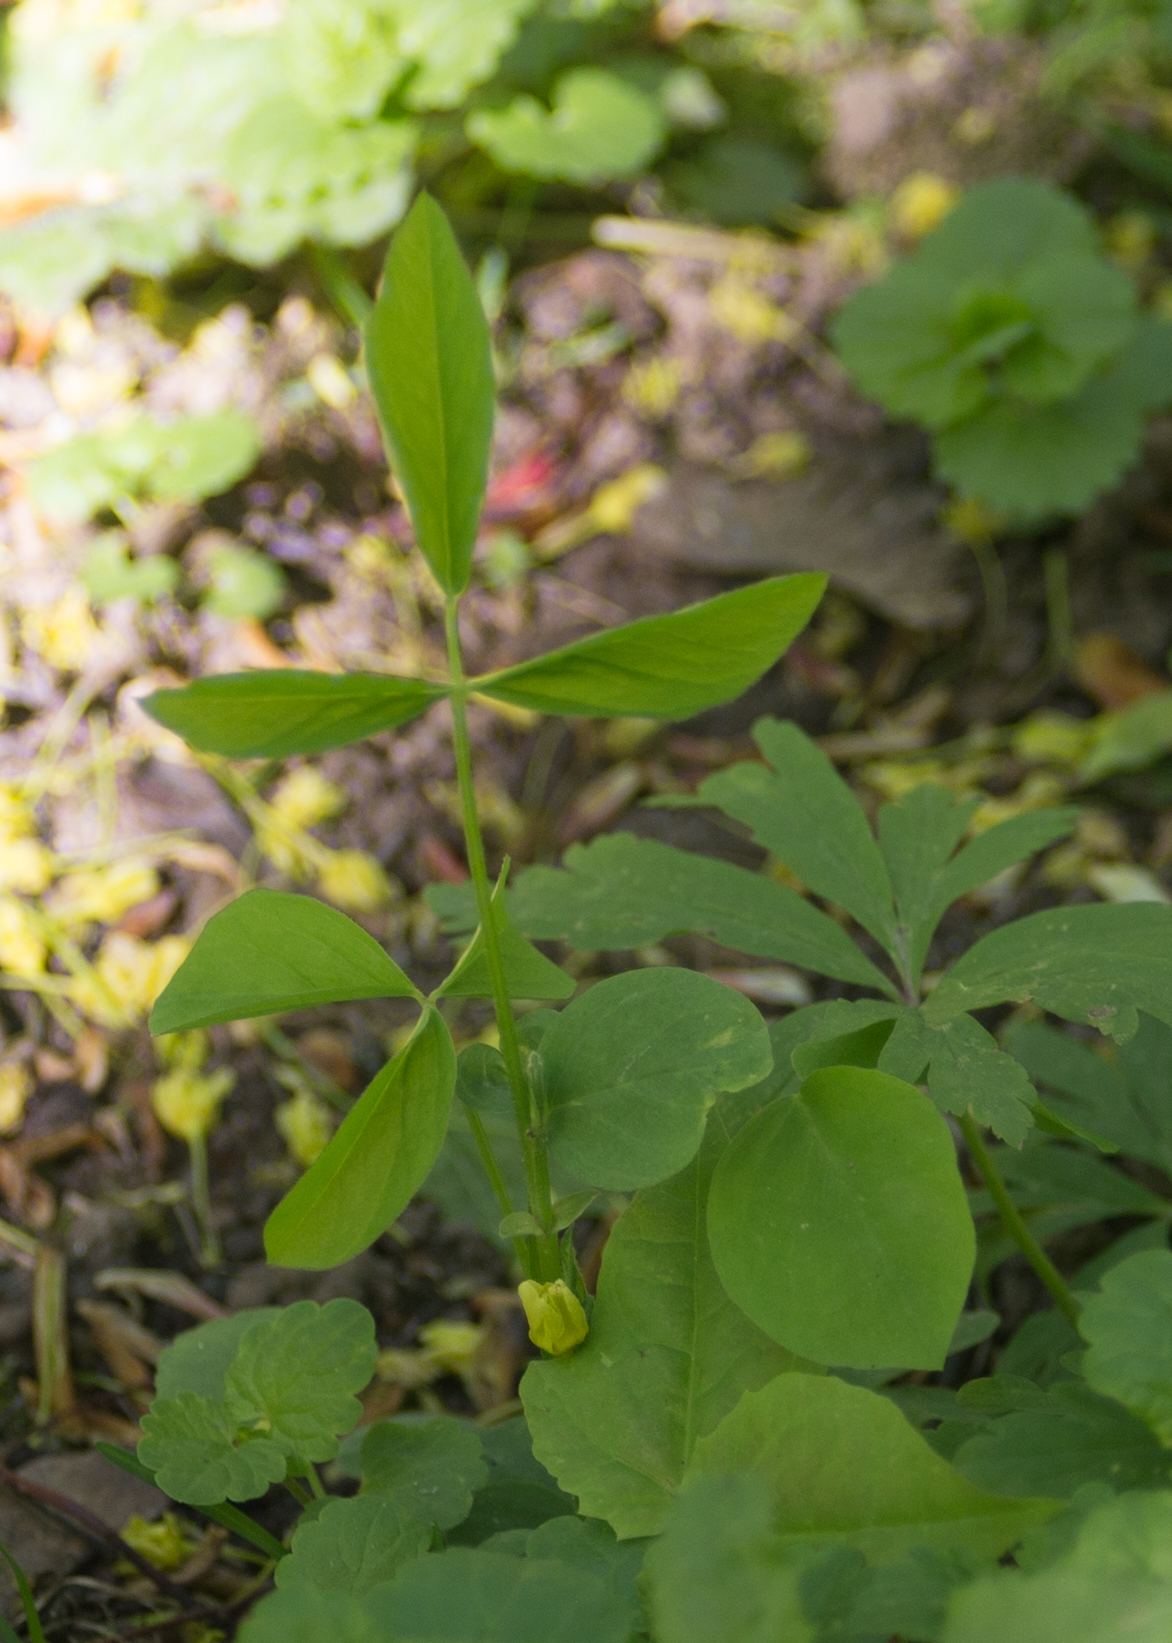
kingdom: Plantae
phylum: Tracheophyta
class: Magnoliopsida
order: Fabales
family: Fabaceae
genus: Galega
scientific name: Galega orientalis
